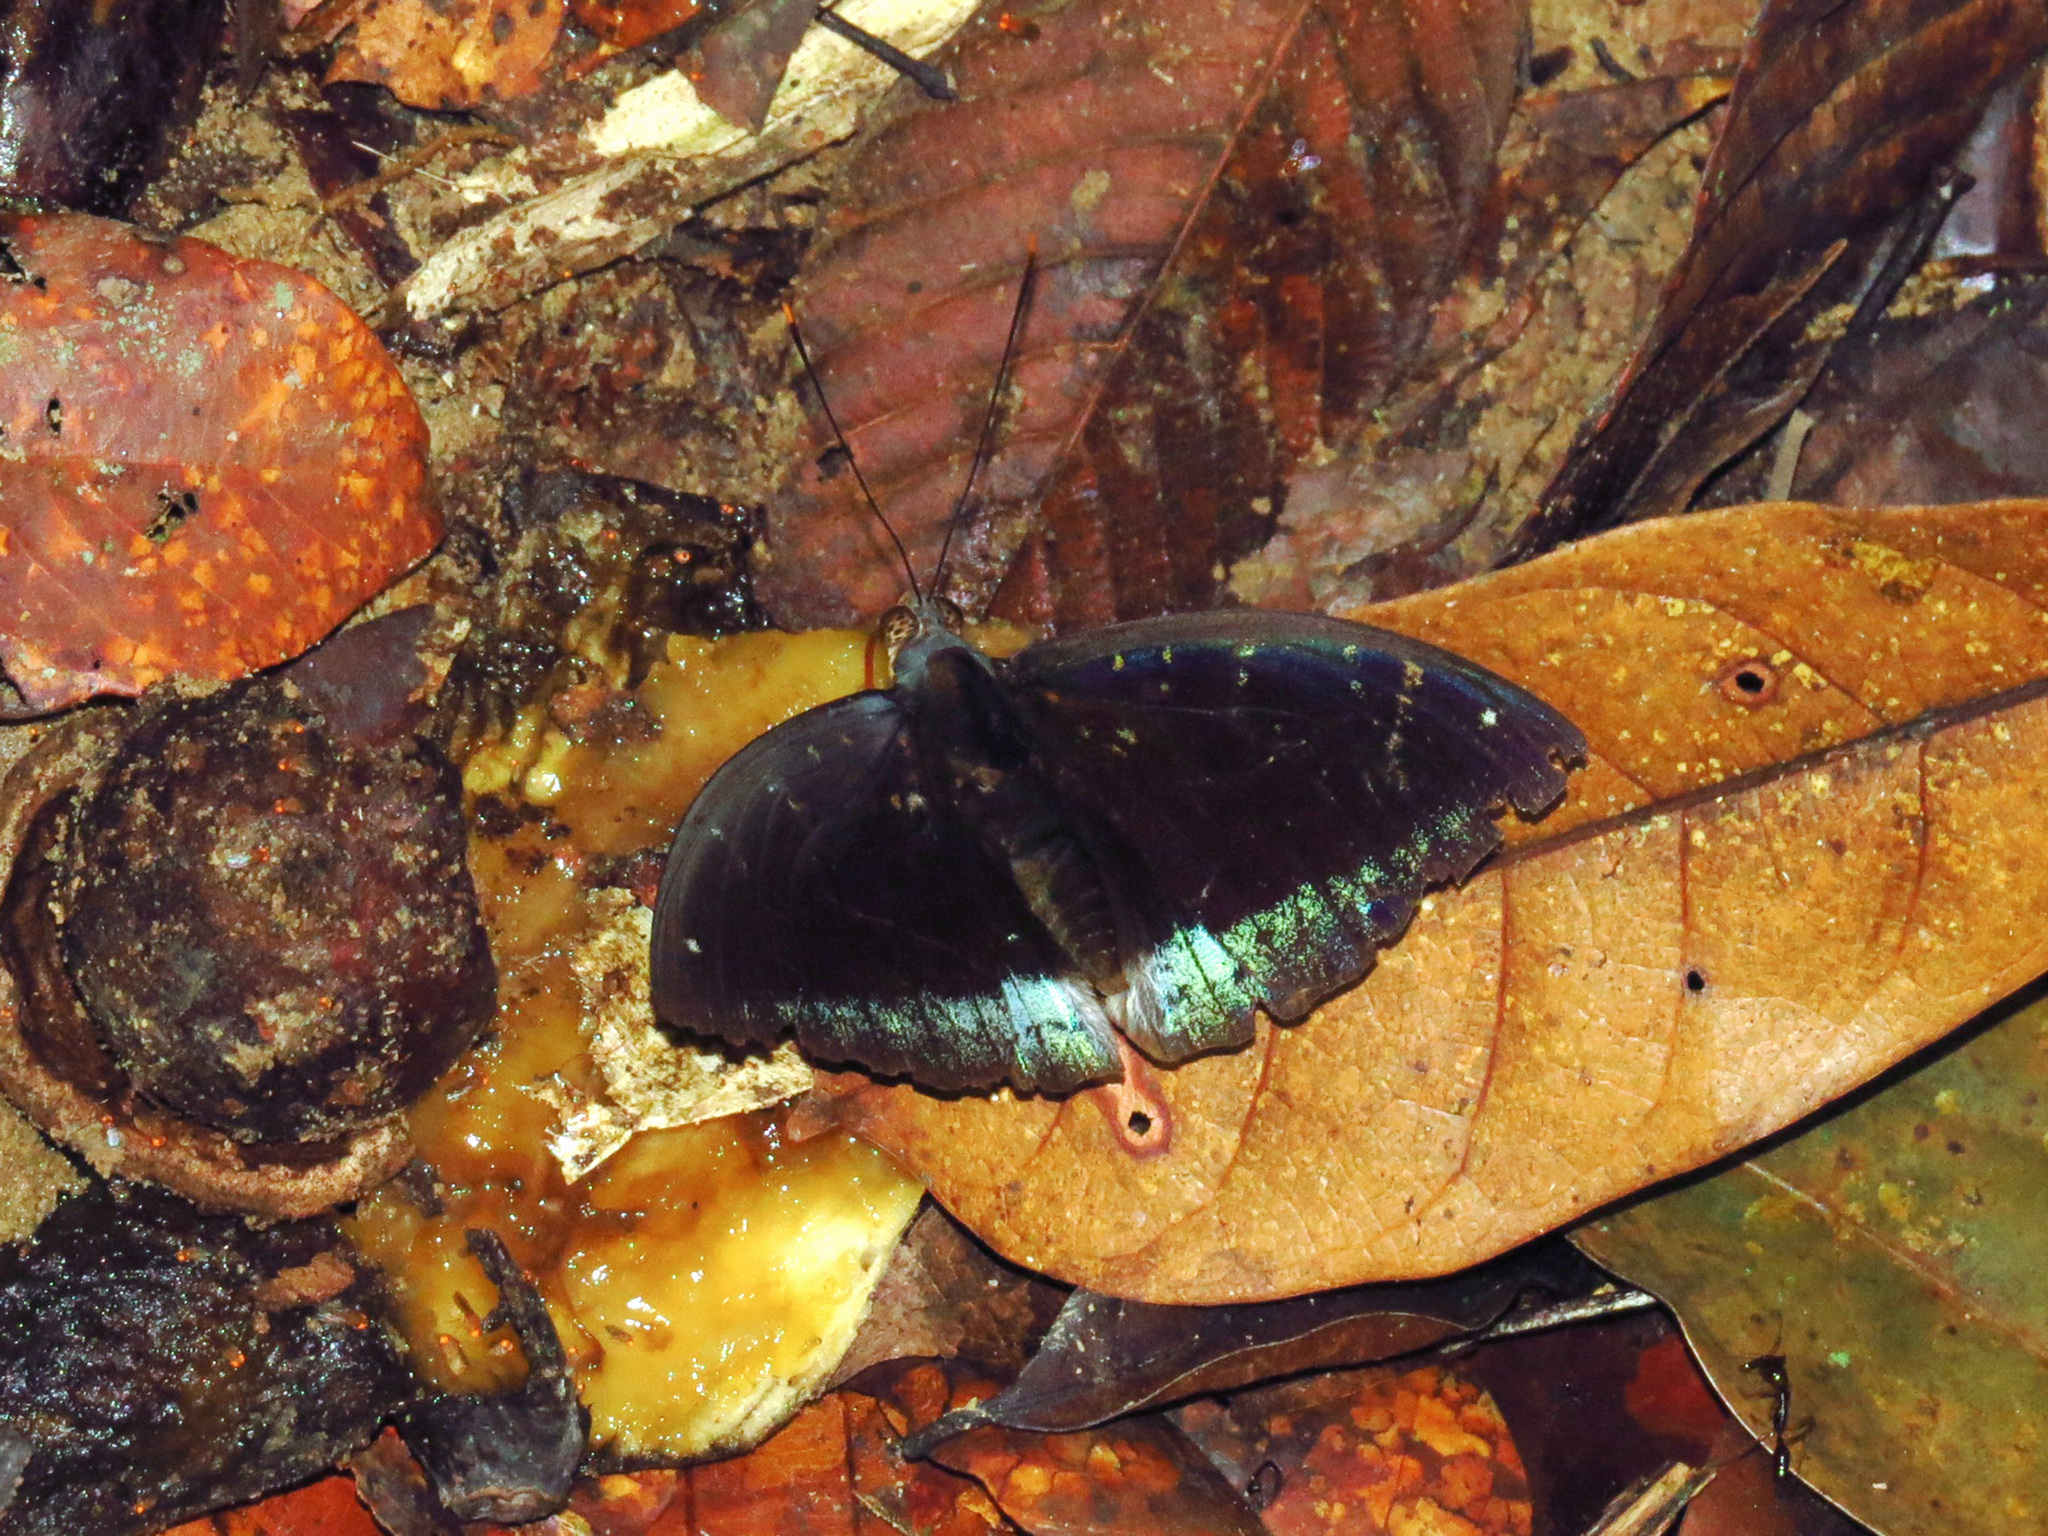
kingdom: Animalia
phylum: Arthropoda
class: Insecta
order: Lepidoptera
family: Nymphalidae
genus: Lexias
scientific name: Lexias pardalis
